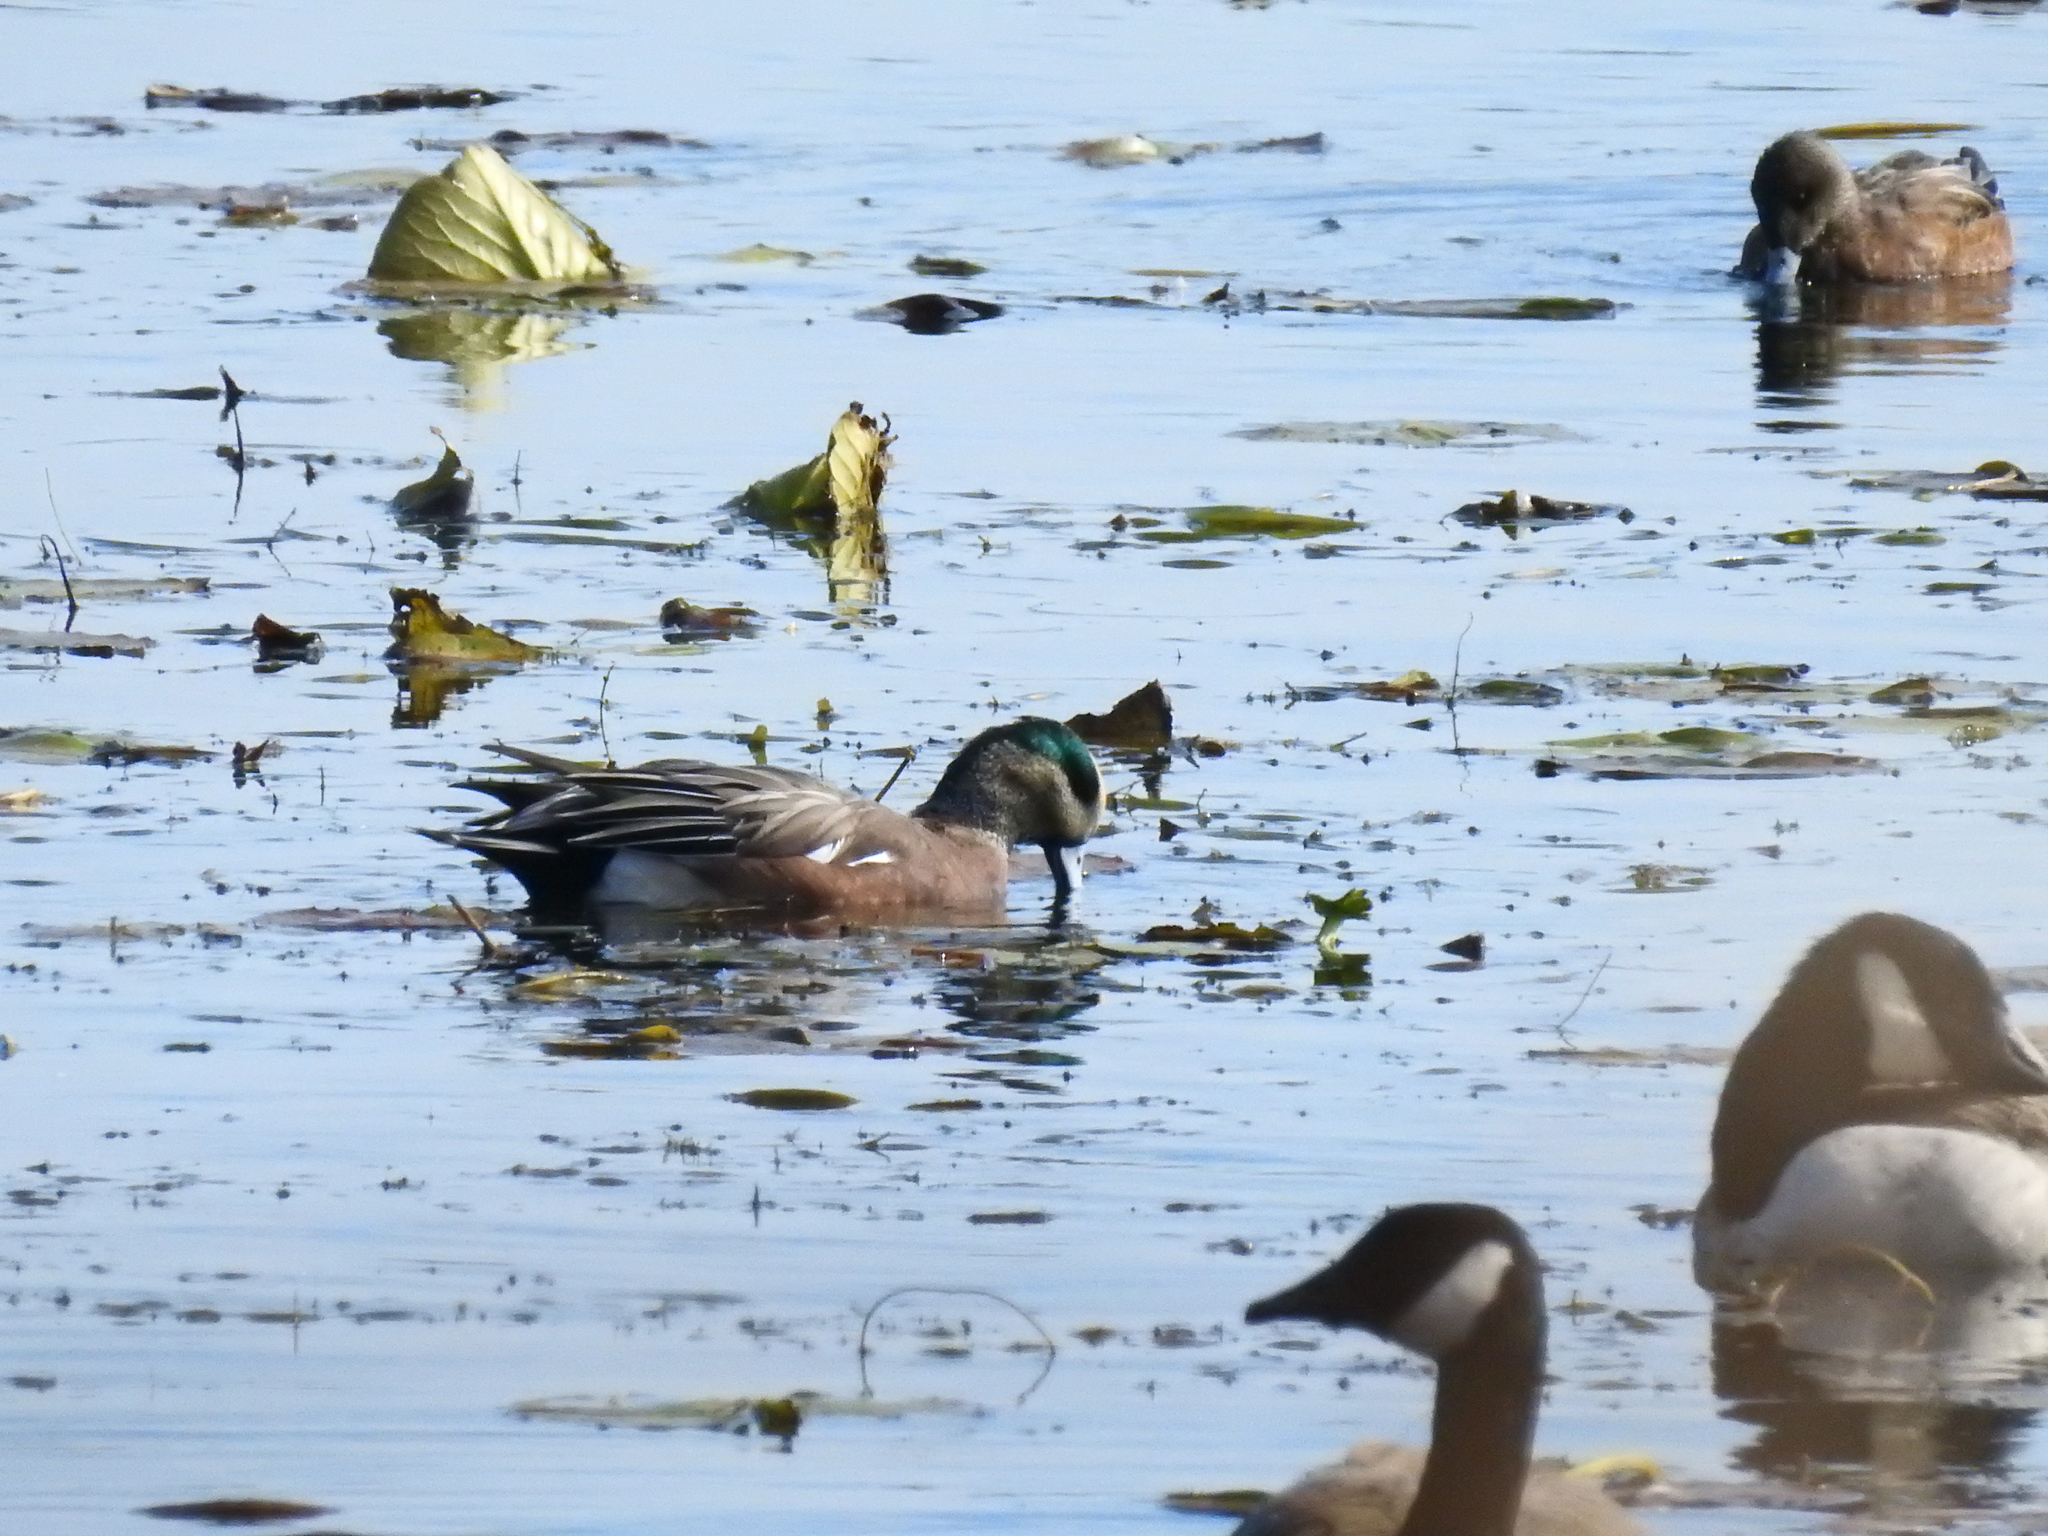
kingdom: Animalia
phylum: Chordata
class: Aves
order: Anseriformes
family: Anatidae
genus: Mareca
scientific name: Mareca americana
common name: American wigeon
